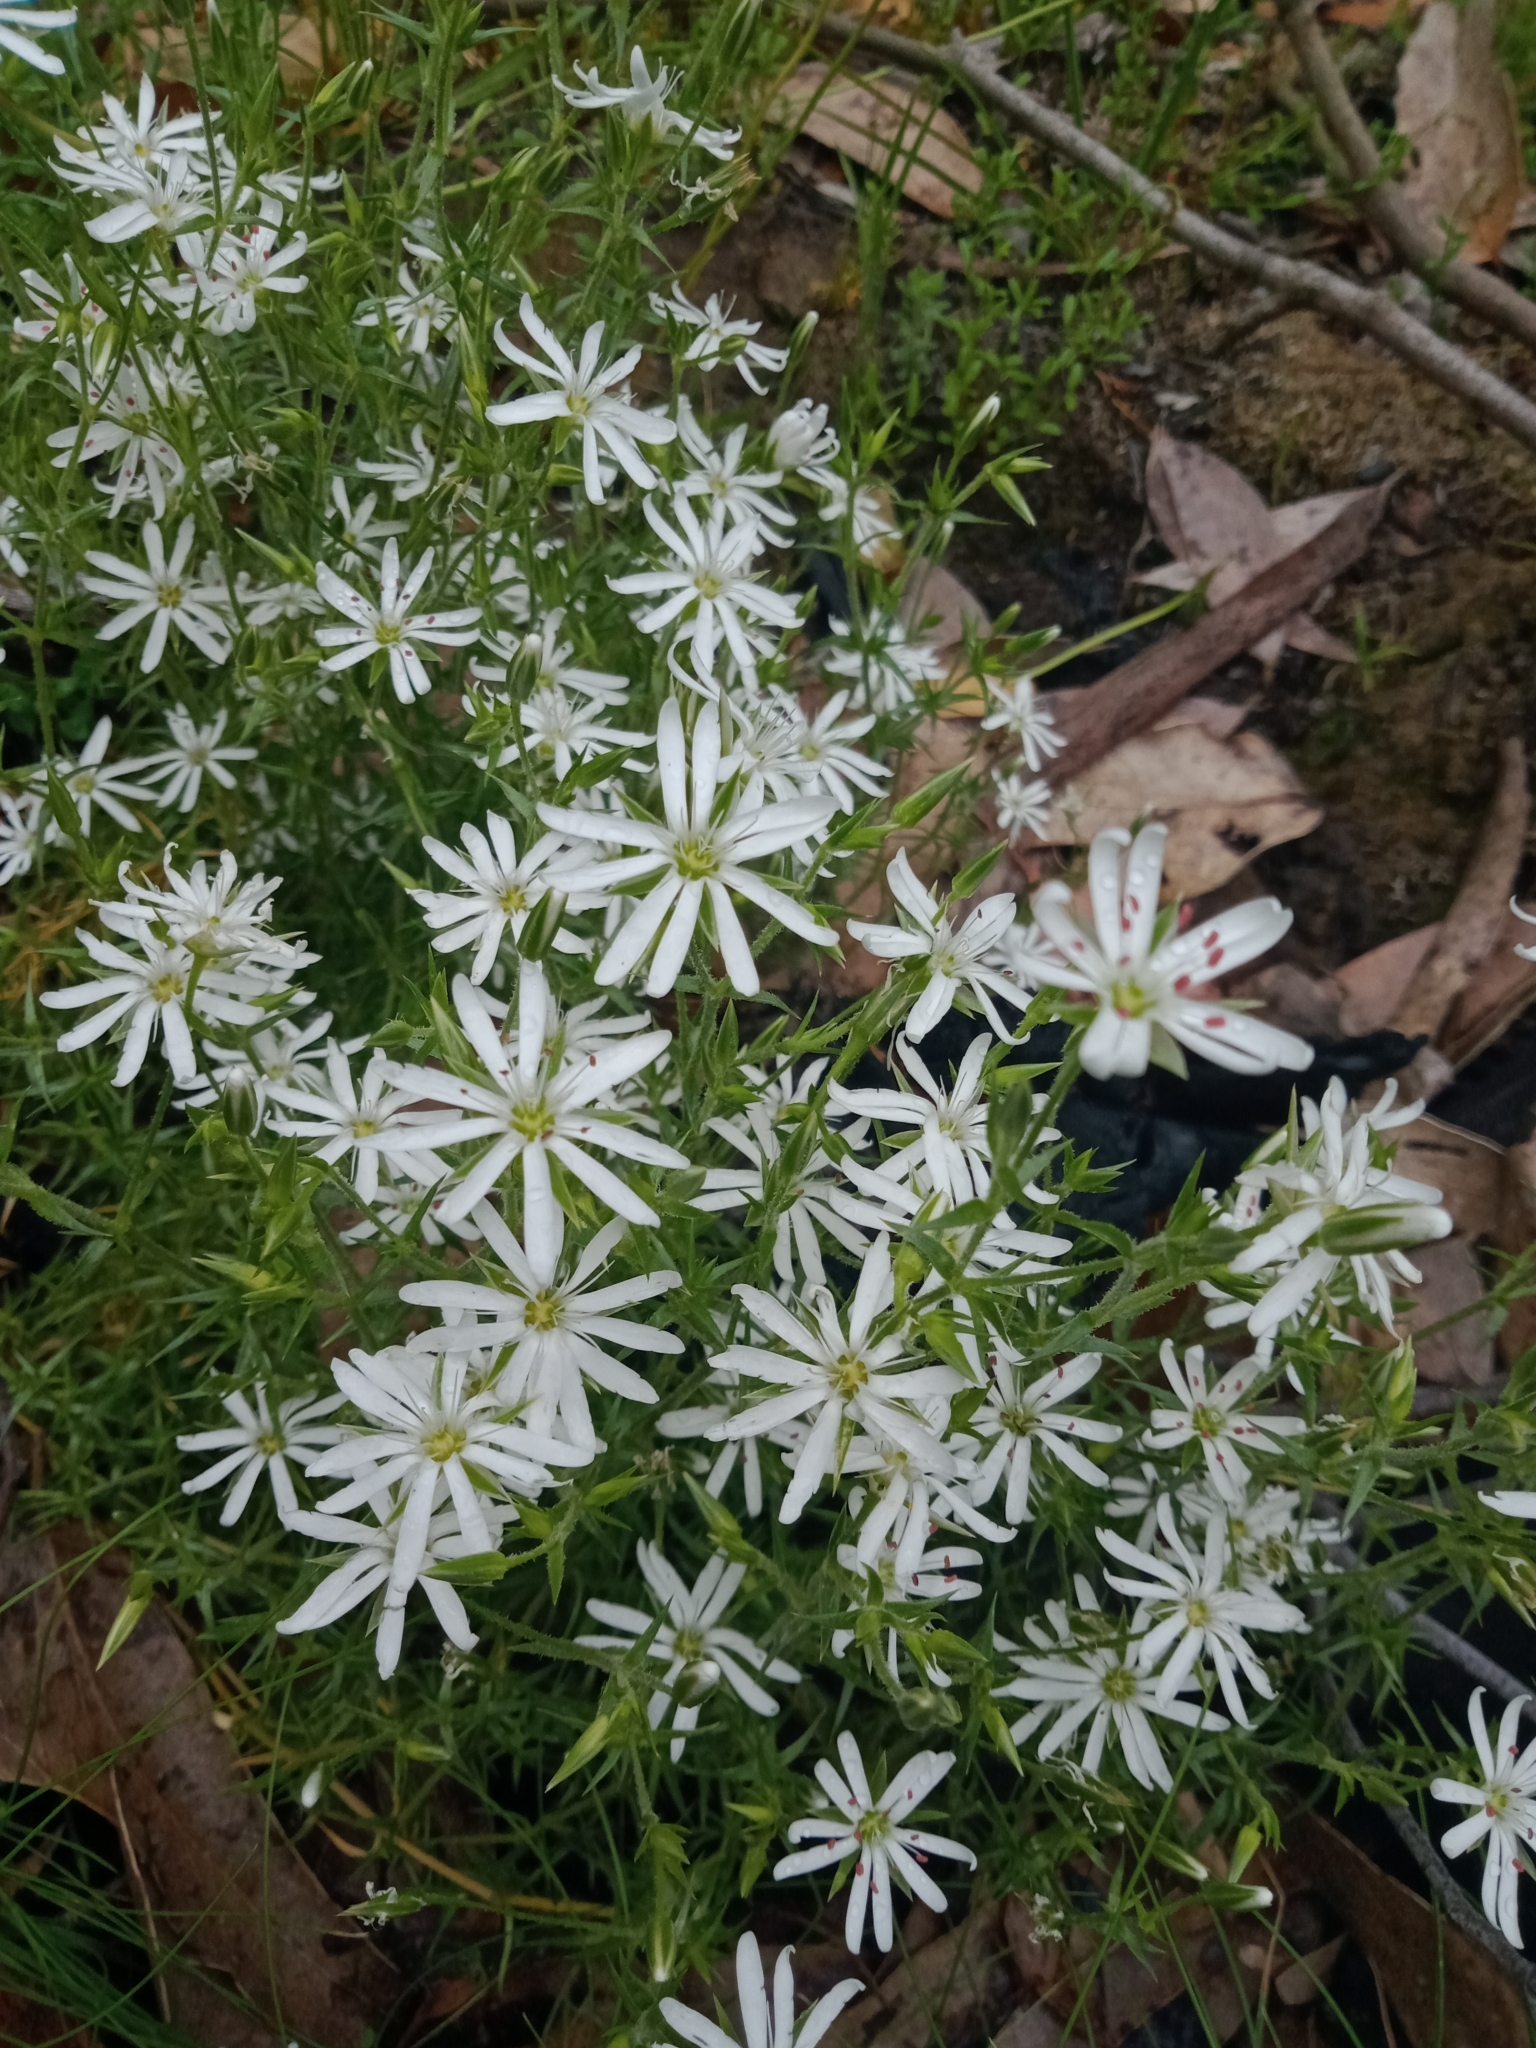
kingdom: Plantae
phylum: Tracheophyta
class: Magnoliopsida
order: Caryophyllales
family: Caryophyllaceae
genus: Stellaria
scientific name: Stellaria pungens
